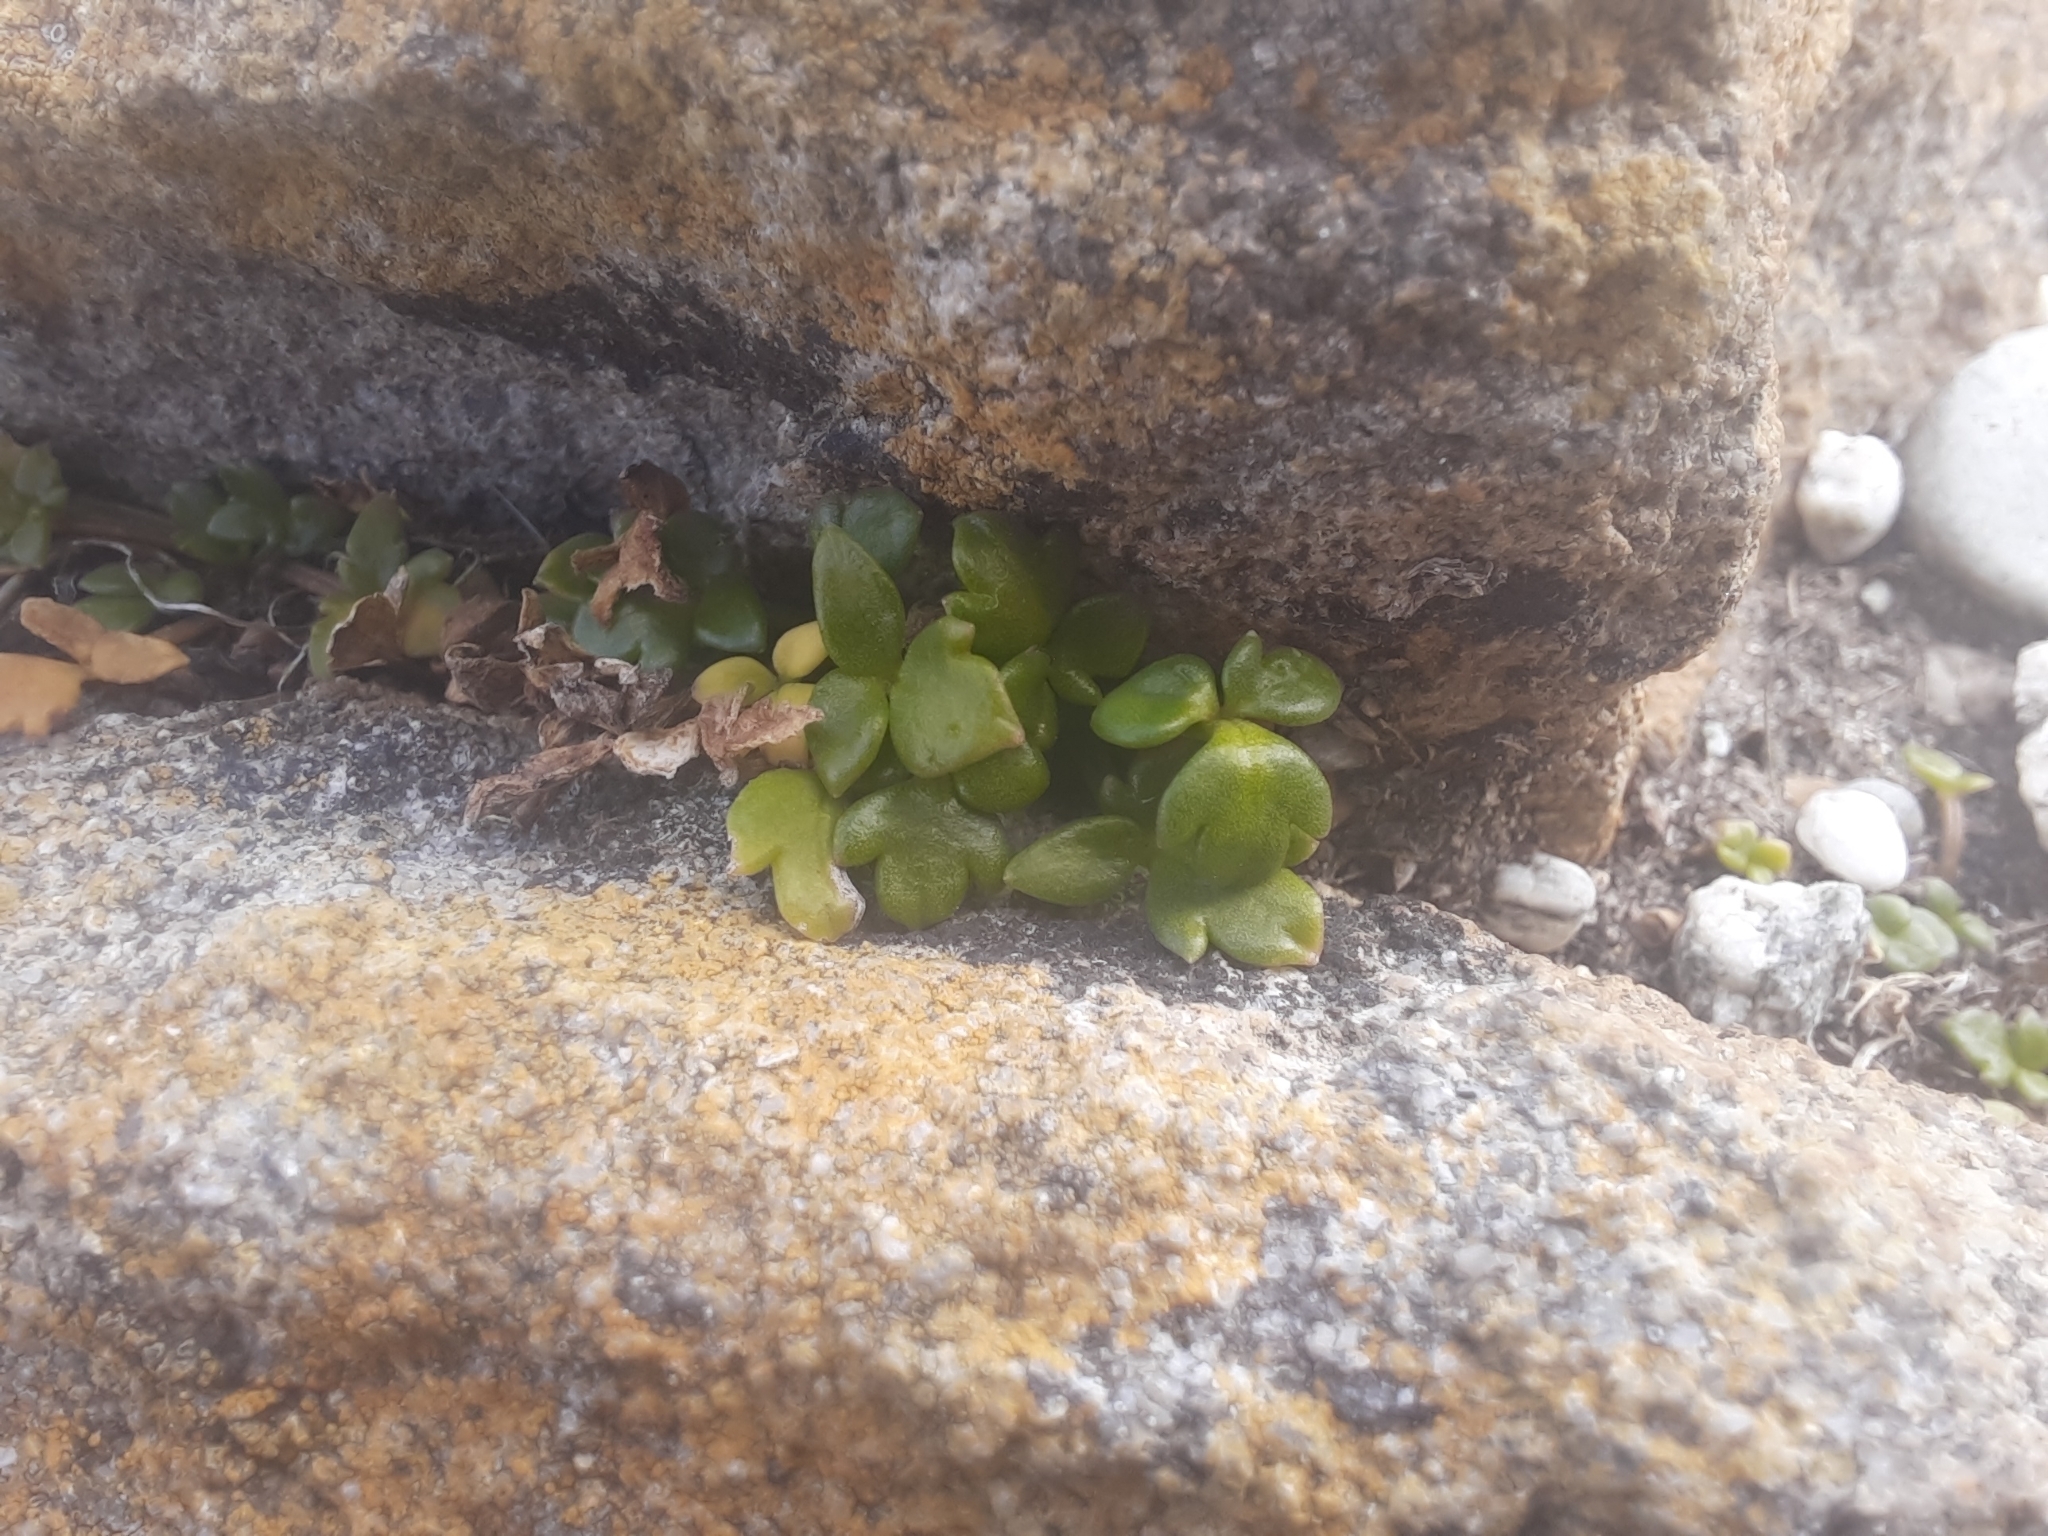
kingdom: Plantae
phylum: Tracheophyta
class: Magnoliopsida
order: Ranunculales
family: Ranunculaceae
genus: Ranunculus
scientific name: Ranunculus acaulis
